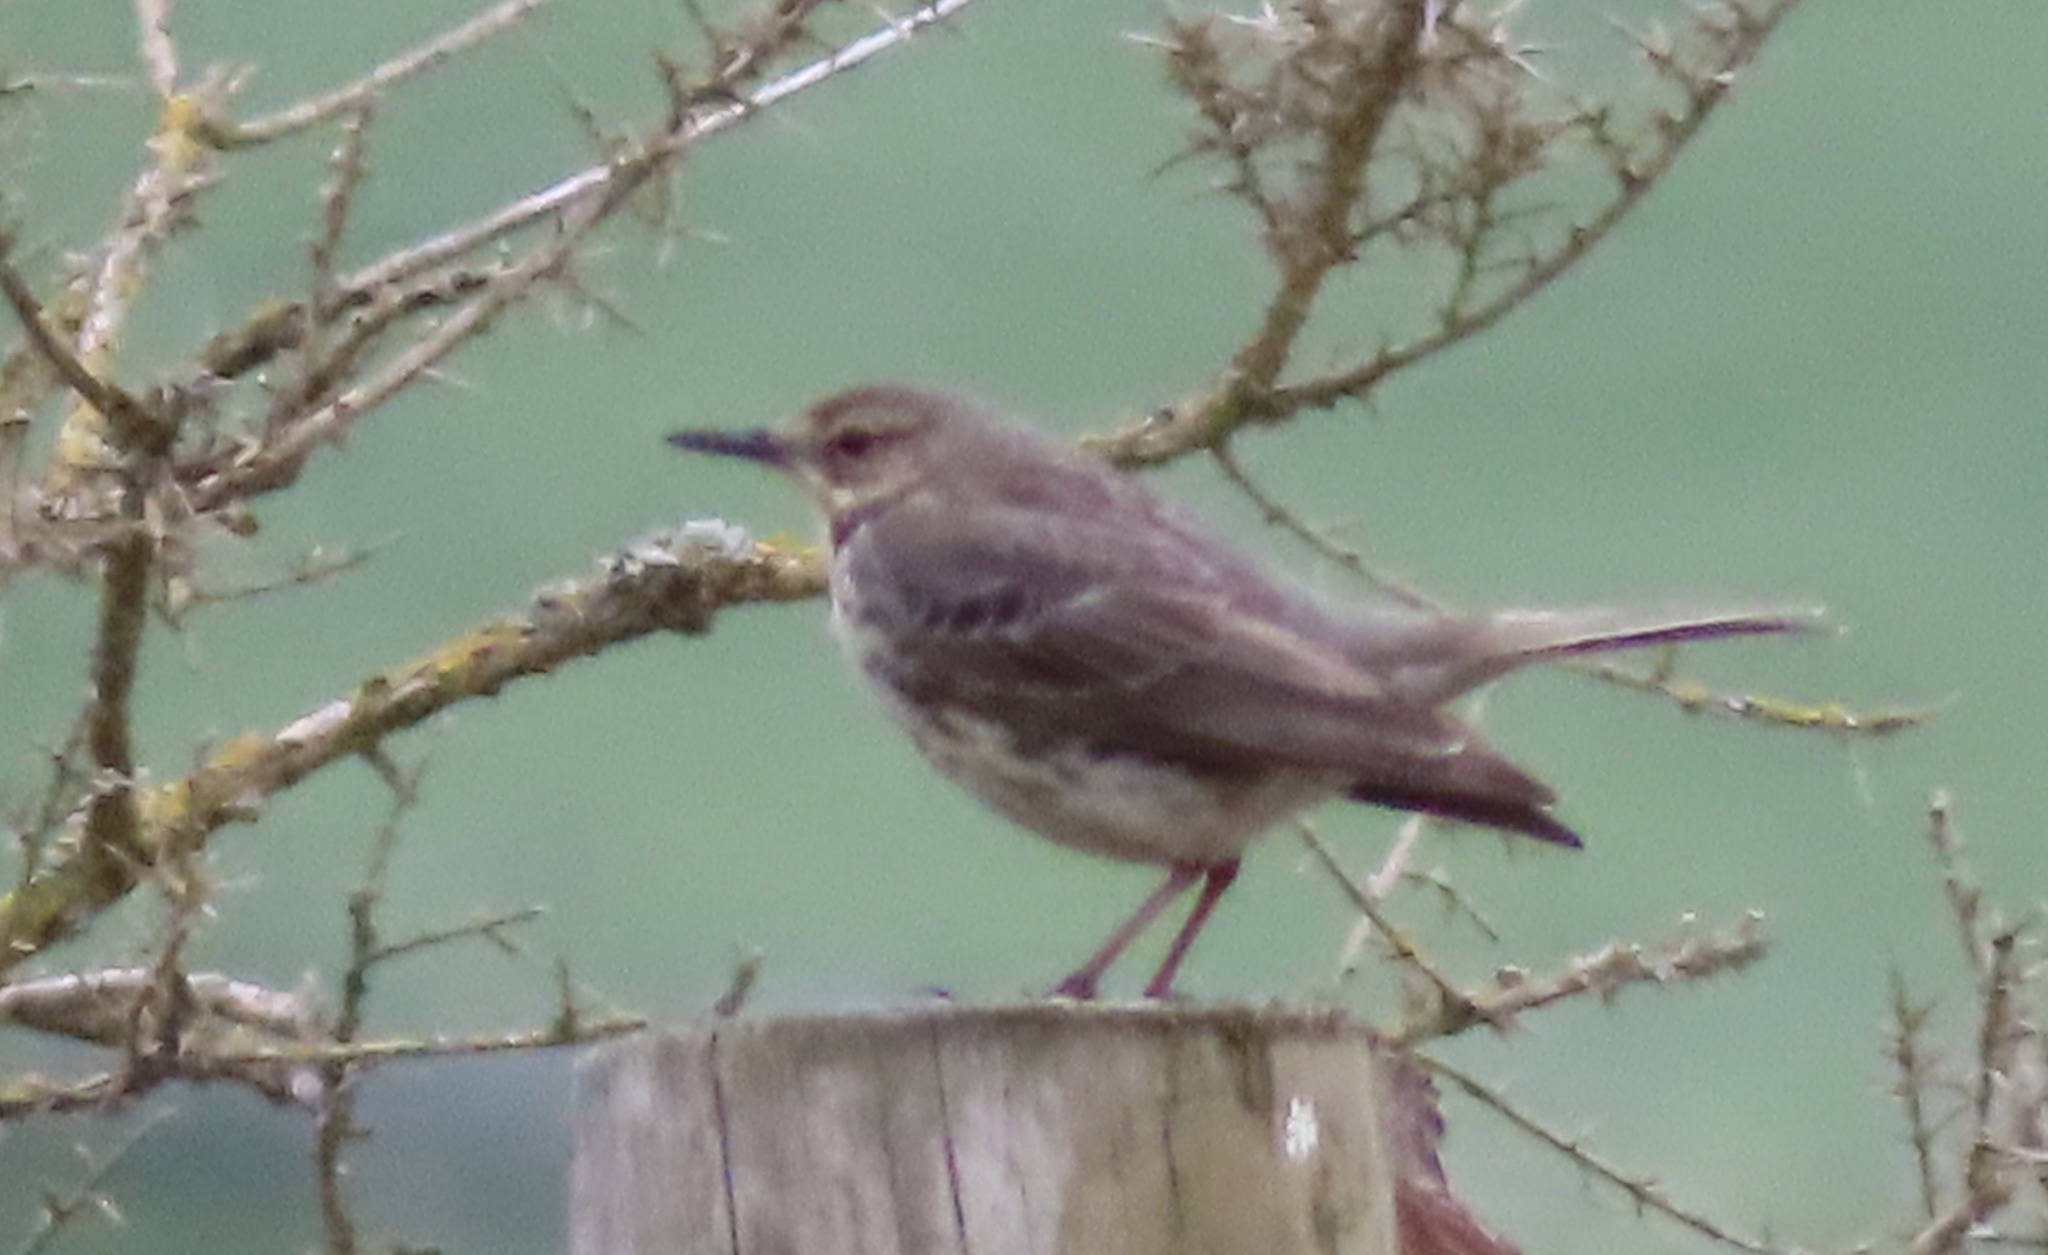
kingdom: Animalia
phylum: Chordata
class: Aves
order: Passeriformes
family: Motacillidae
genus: Anthus
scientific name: Anthus petrosus
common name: Eurasian rock pipit
